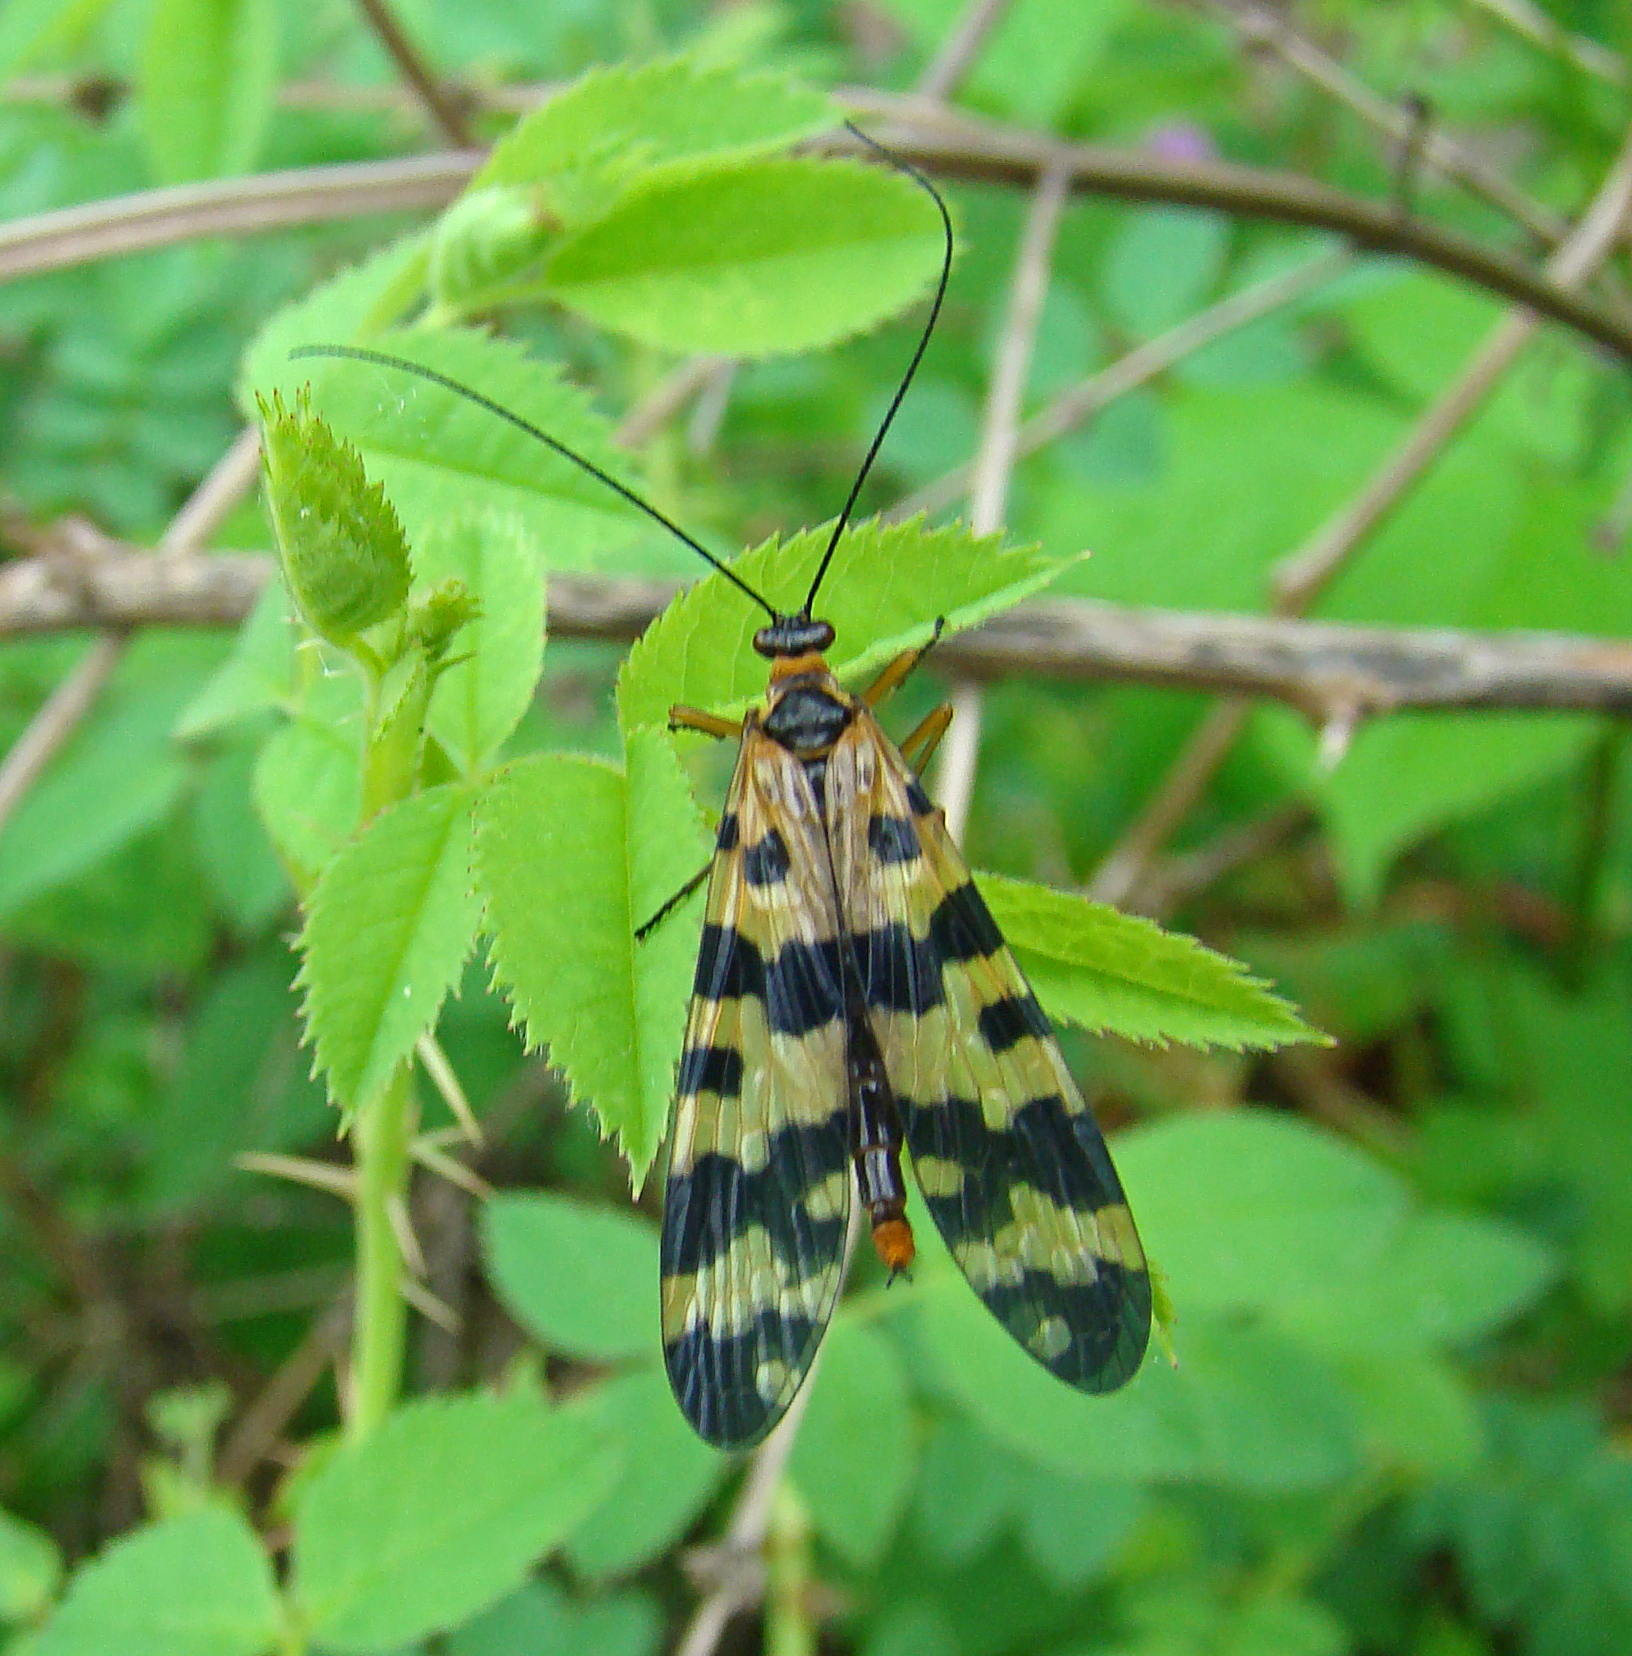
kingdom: Animalia
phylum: Arthropoda
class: Insecta
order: Mecoptera
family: Panorpidae
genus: Panorpa
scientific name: Panorpa nigrirostris
